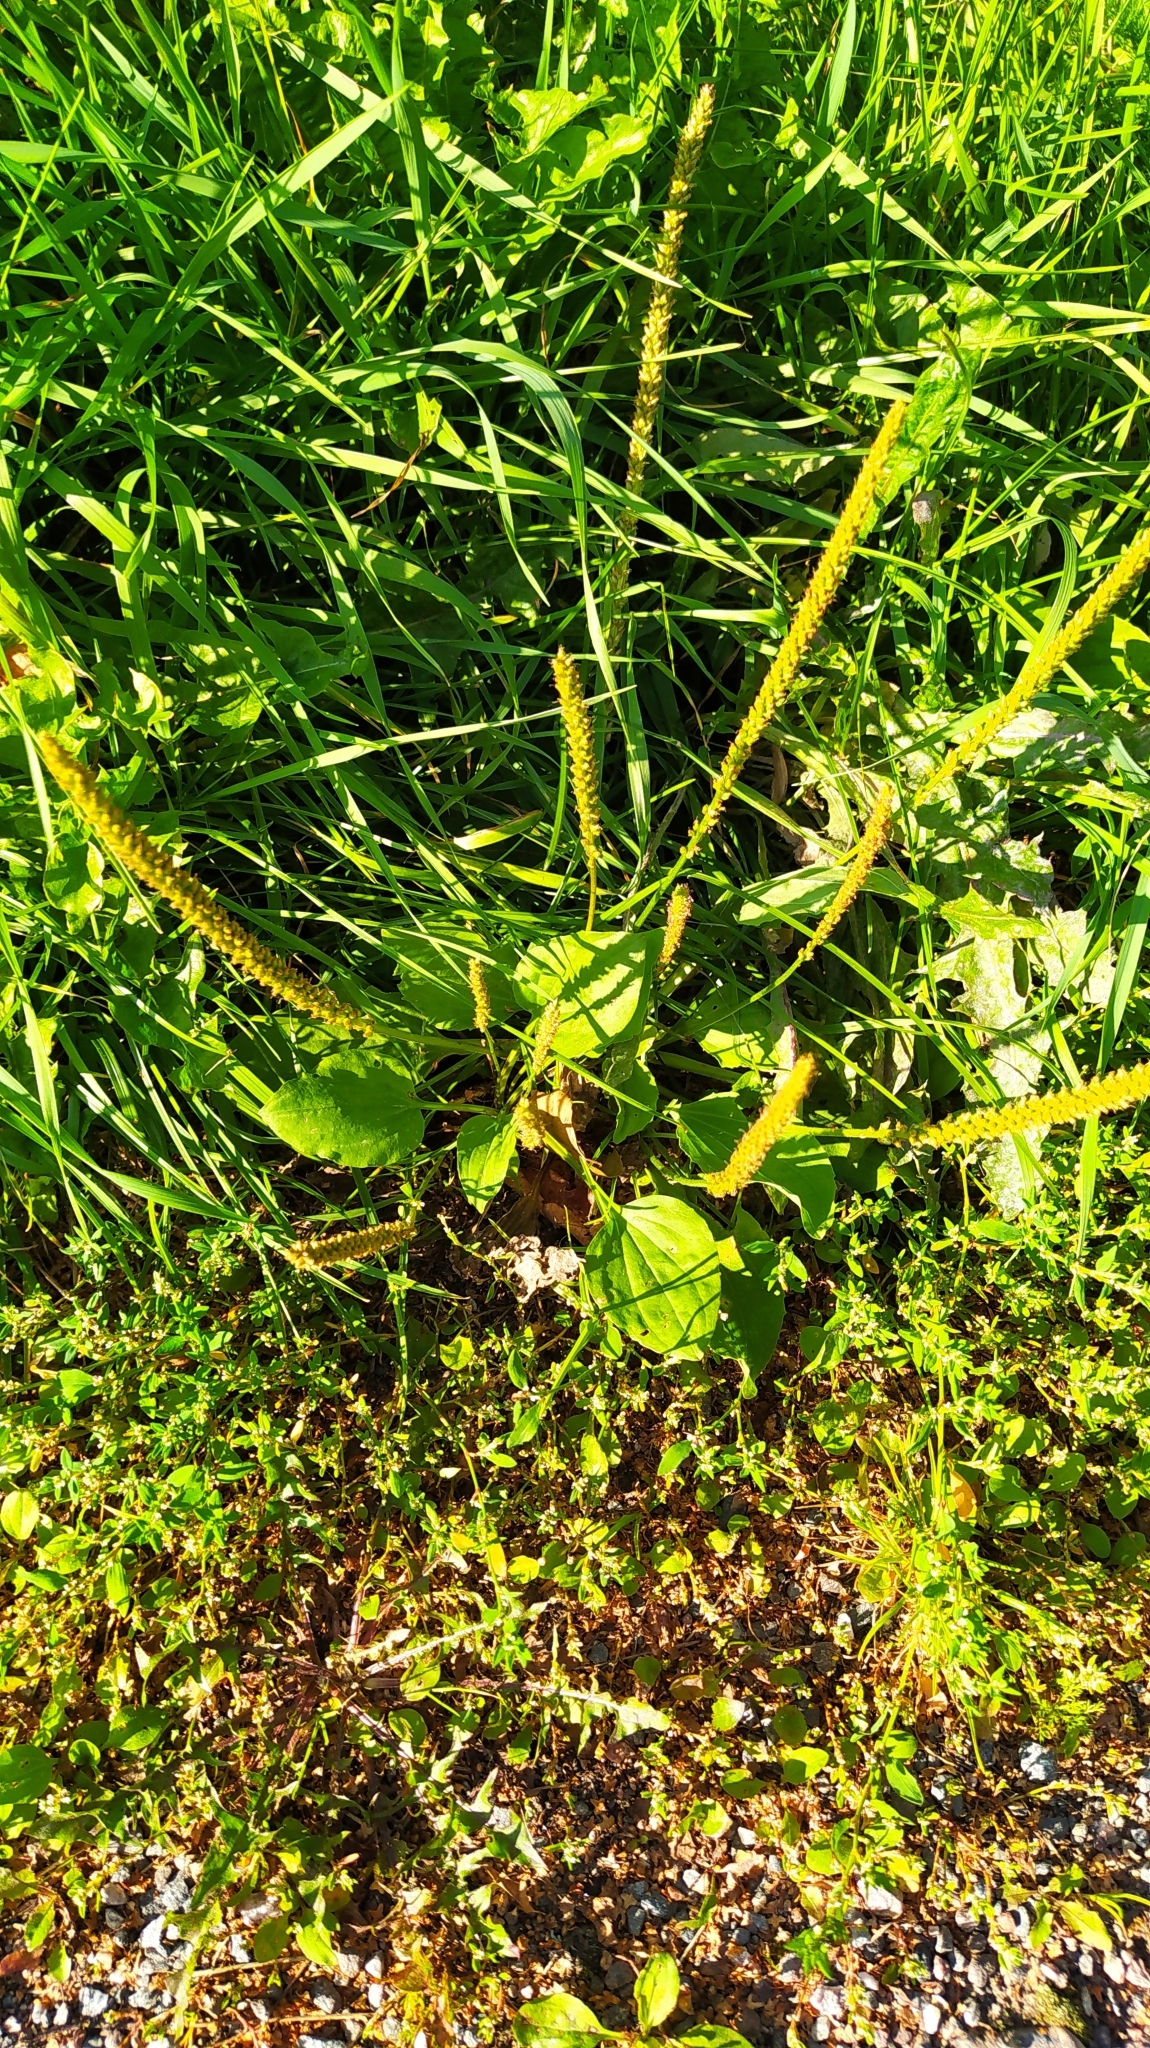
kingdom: Plantae
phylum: Tracheophyta
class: Magnoliopsida
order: Lamiales
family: Plantaginaceae
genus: Plantago
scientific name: Plantago major
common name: Common plantain
